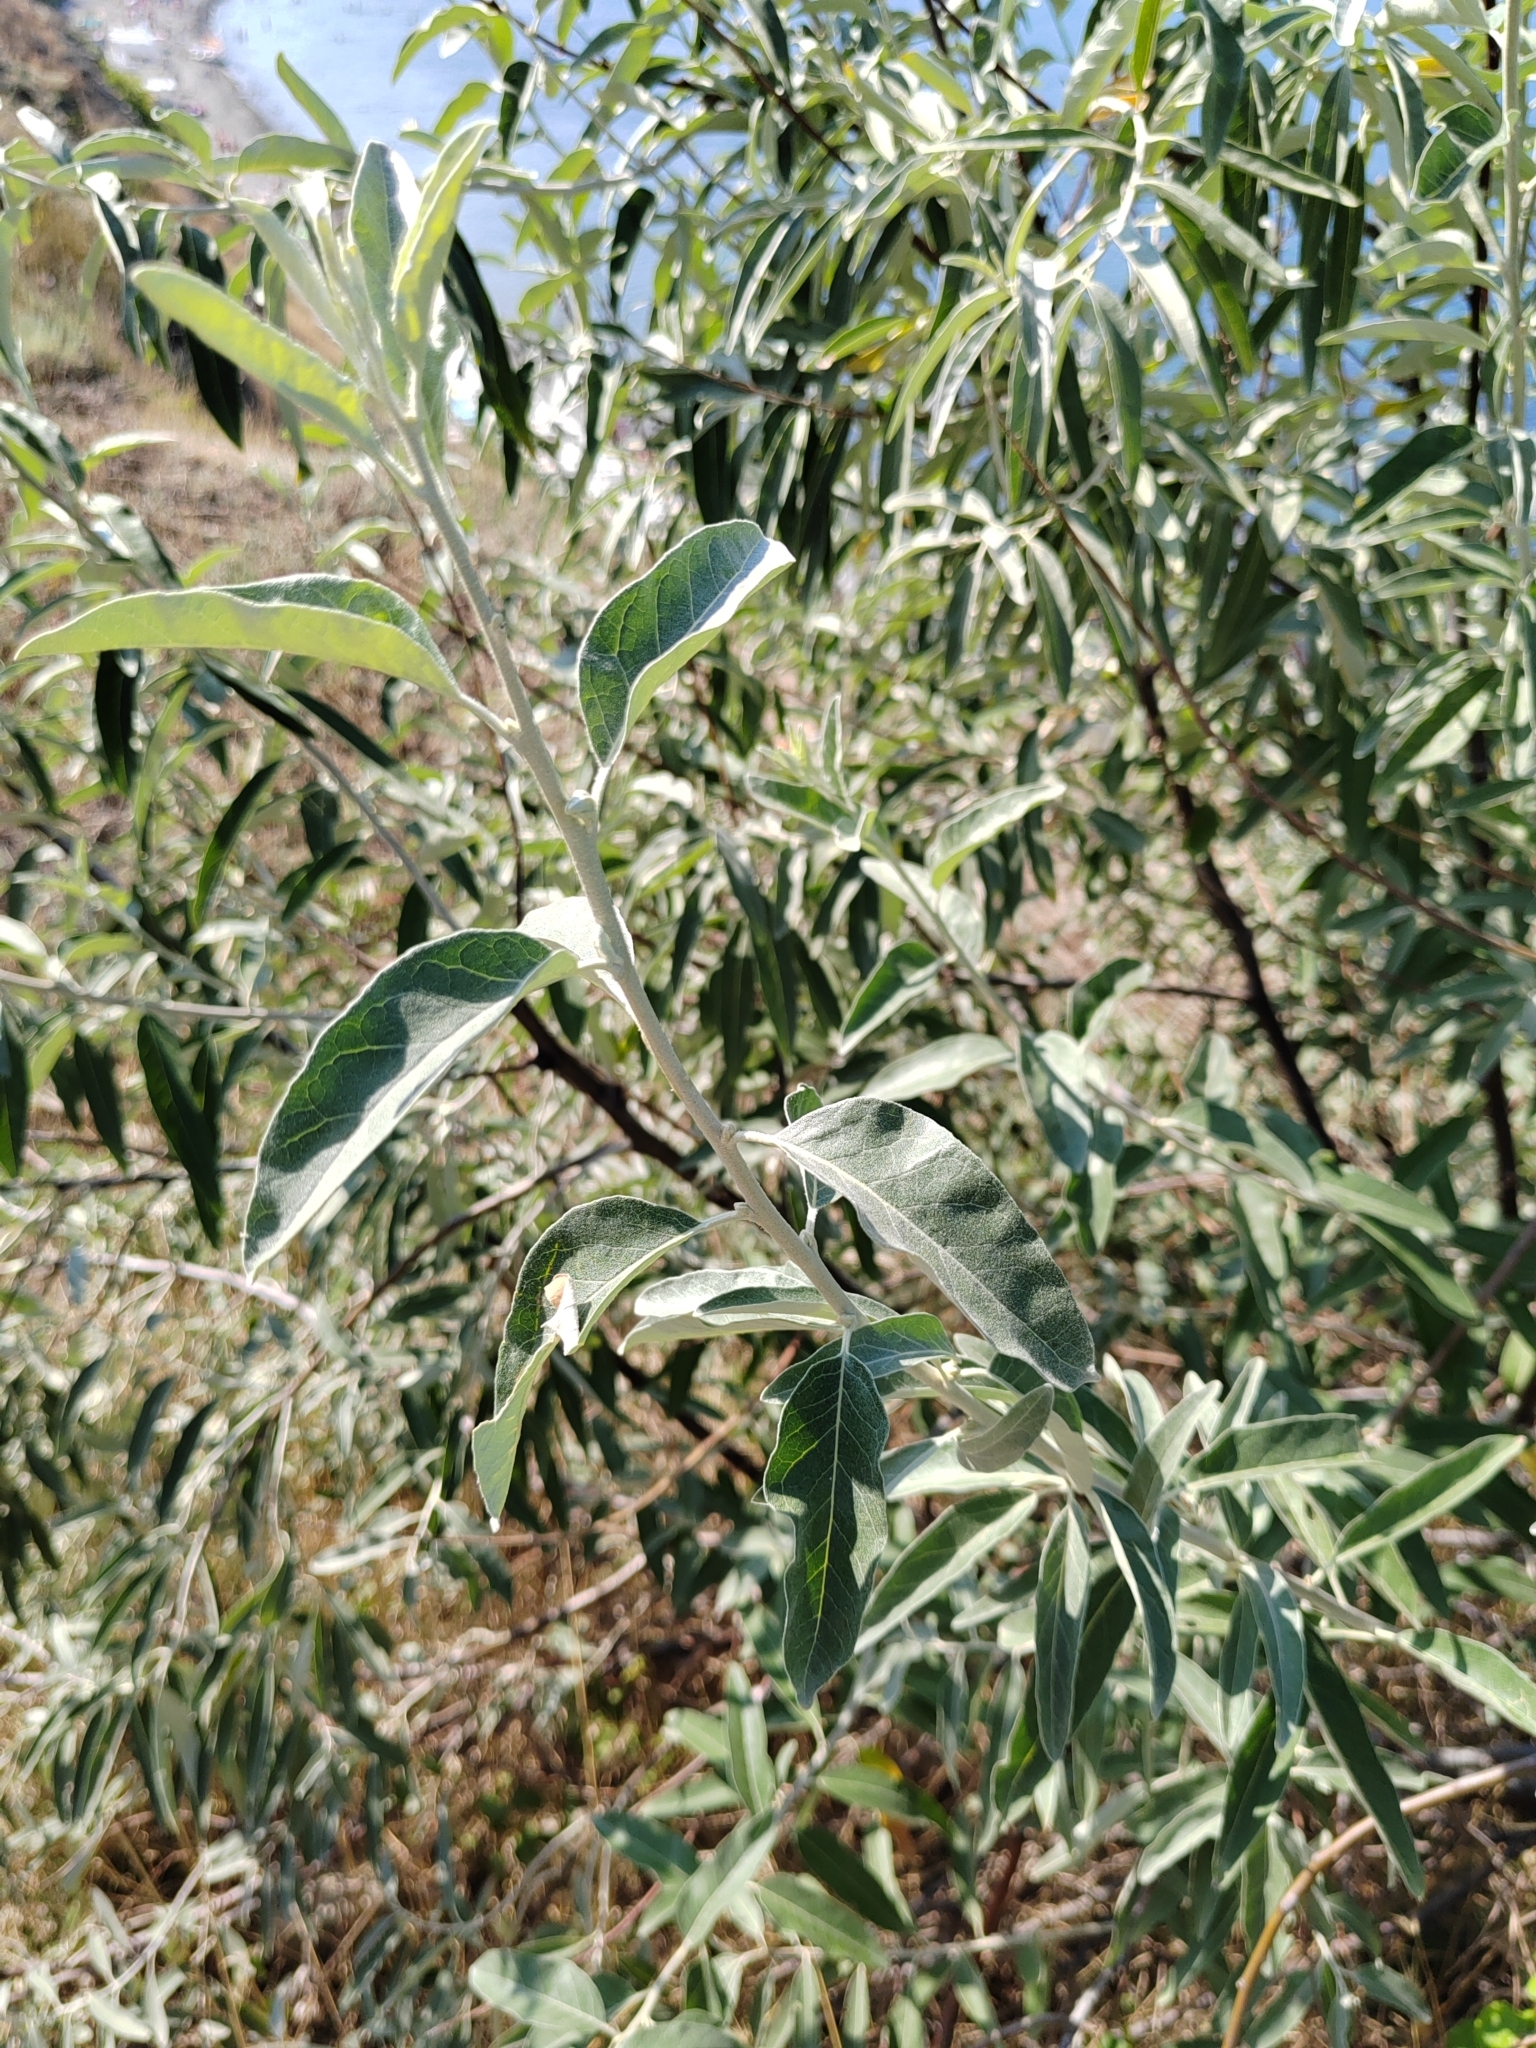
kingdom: Plantae
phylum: Tracheophyta
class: Magnoliopsida
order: Rosales
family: Elaeagnaceae
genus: Elaeagnus
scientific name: Elaeagnus angustifolia
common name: Russian olive
